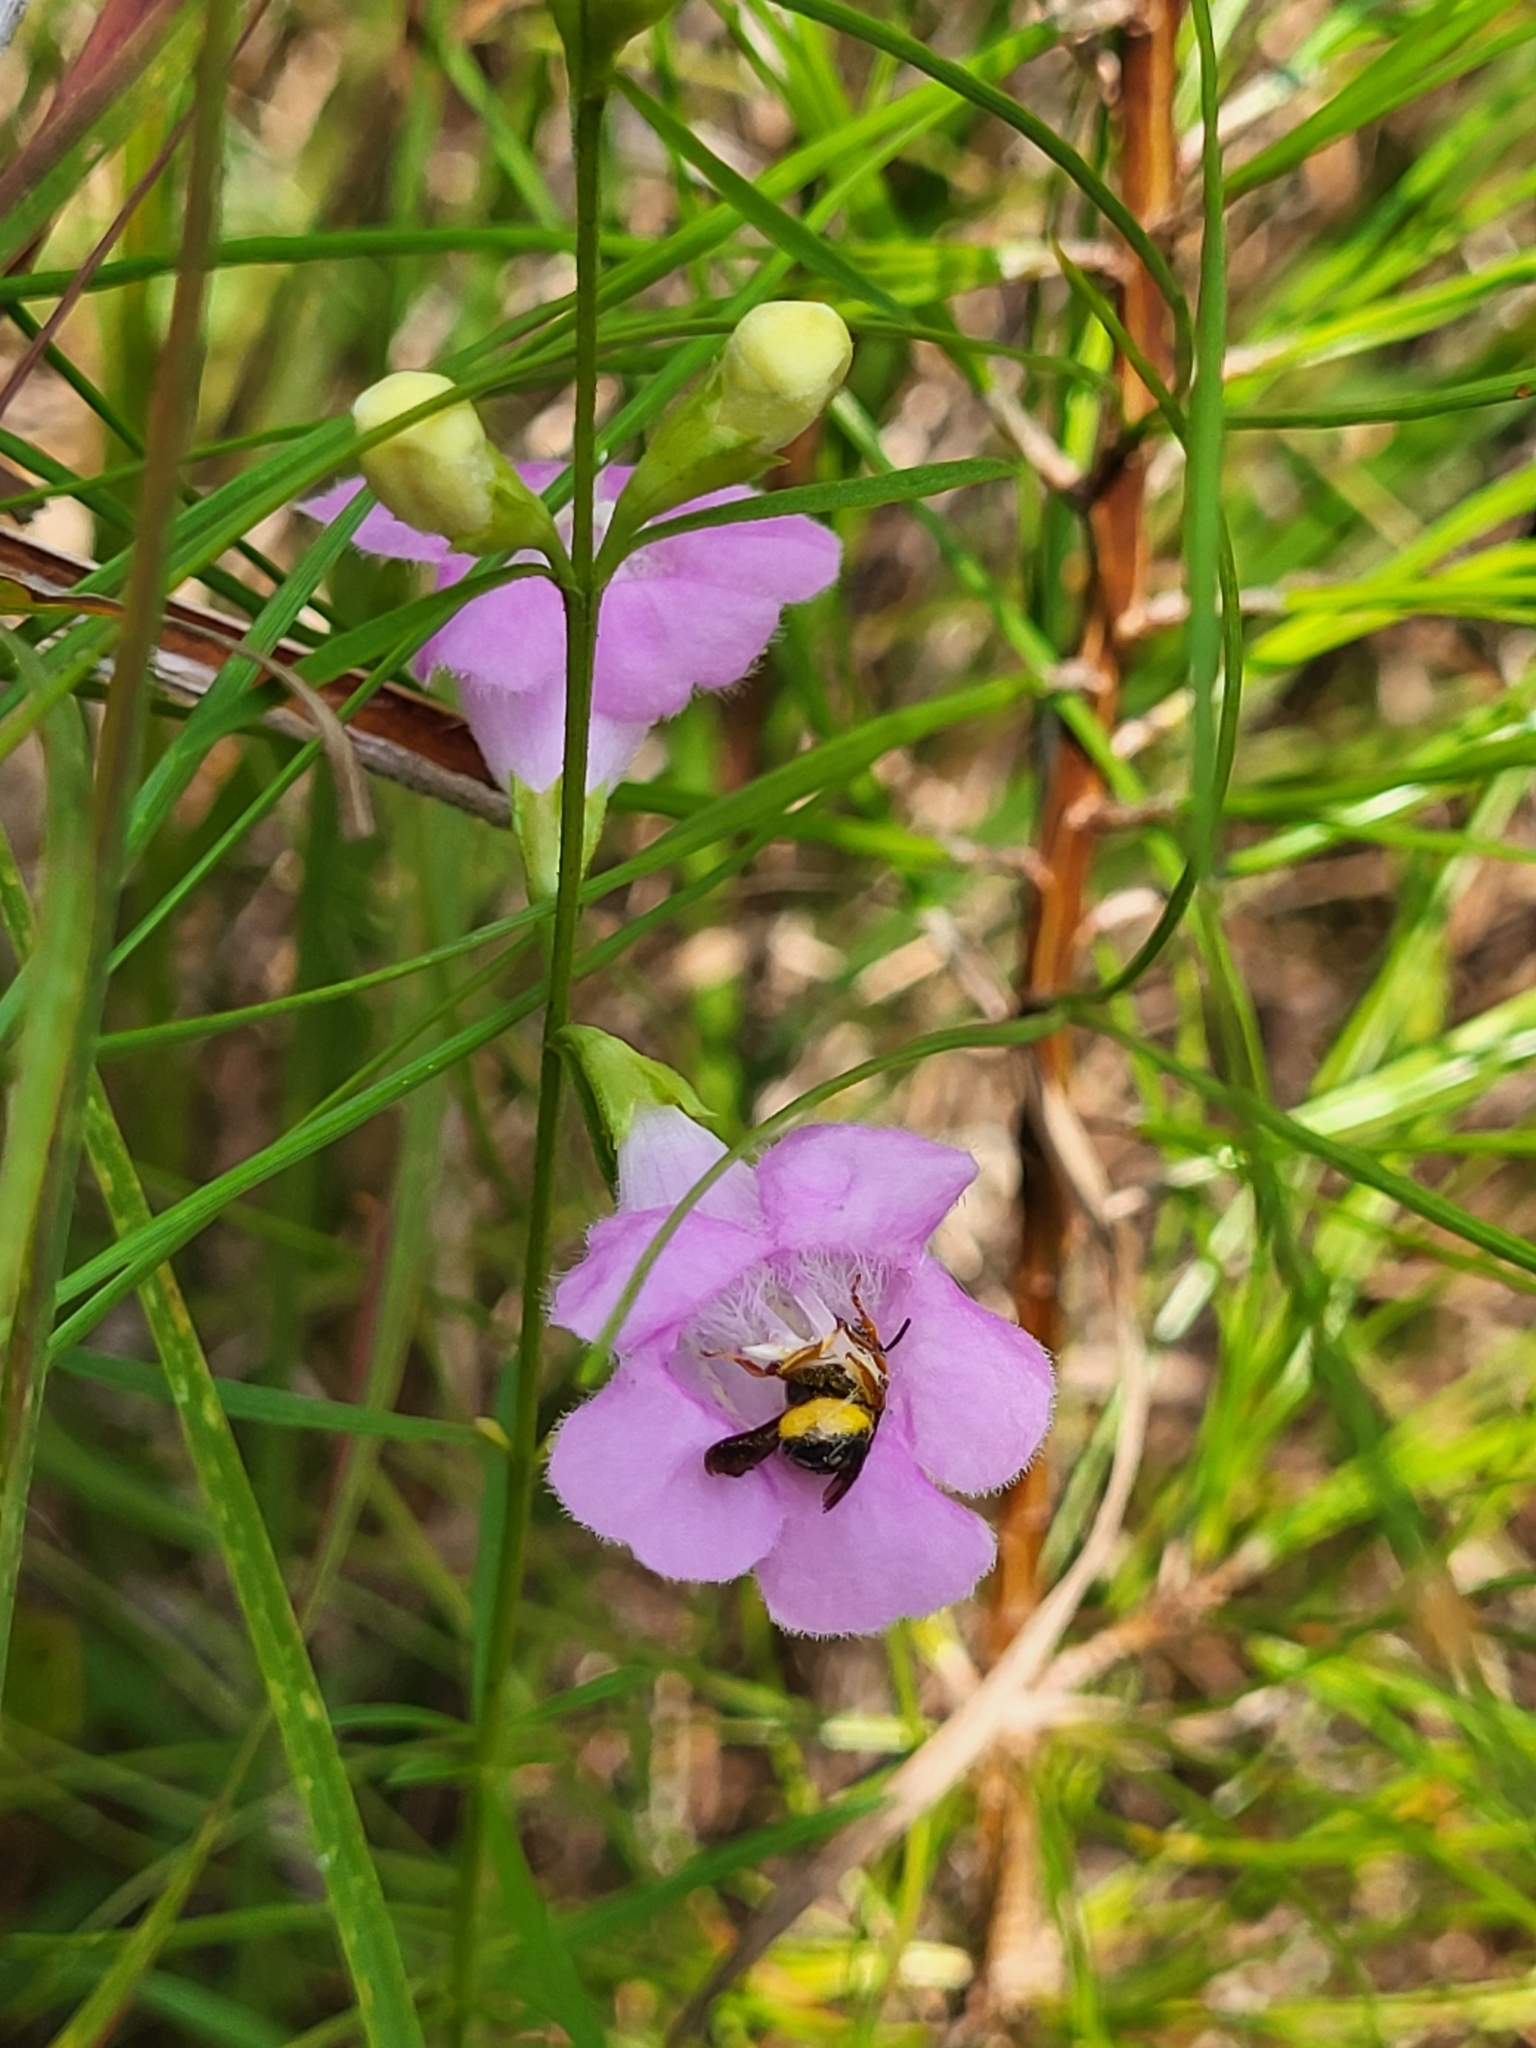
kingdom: Animalia
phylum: Arthropoda
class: Insecta
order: Hymenoptera
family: Megachilidae
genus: Anthidiellum
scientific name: Anthidiellum notatum
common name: Northern rotund-resin bee
